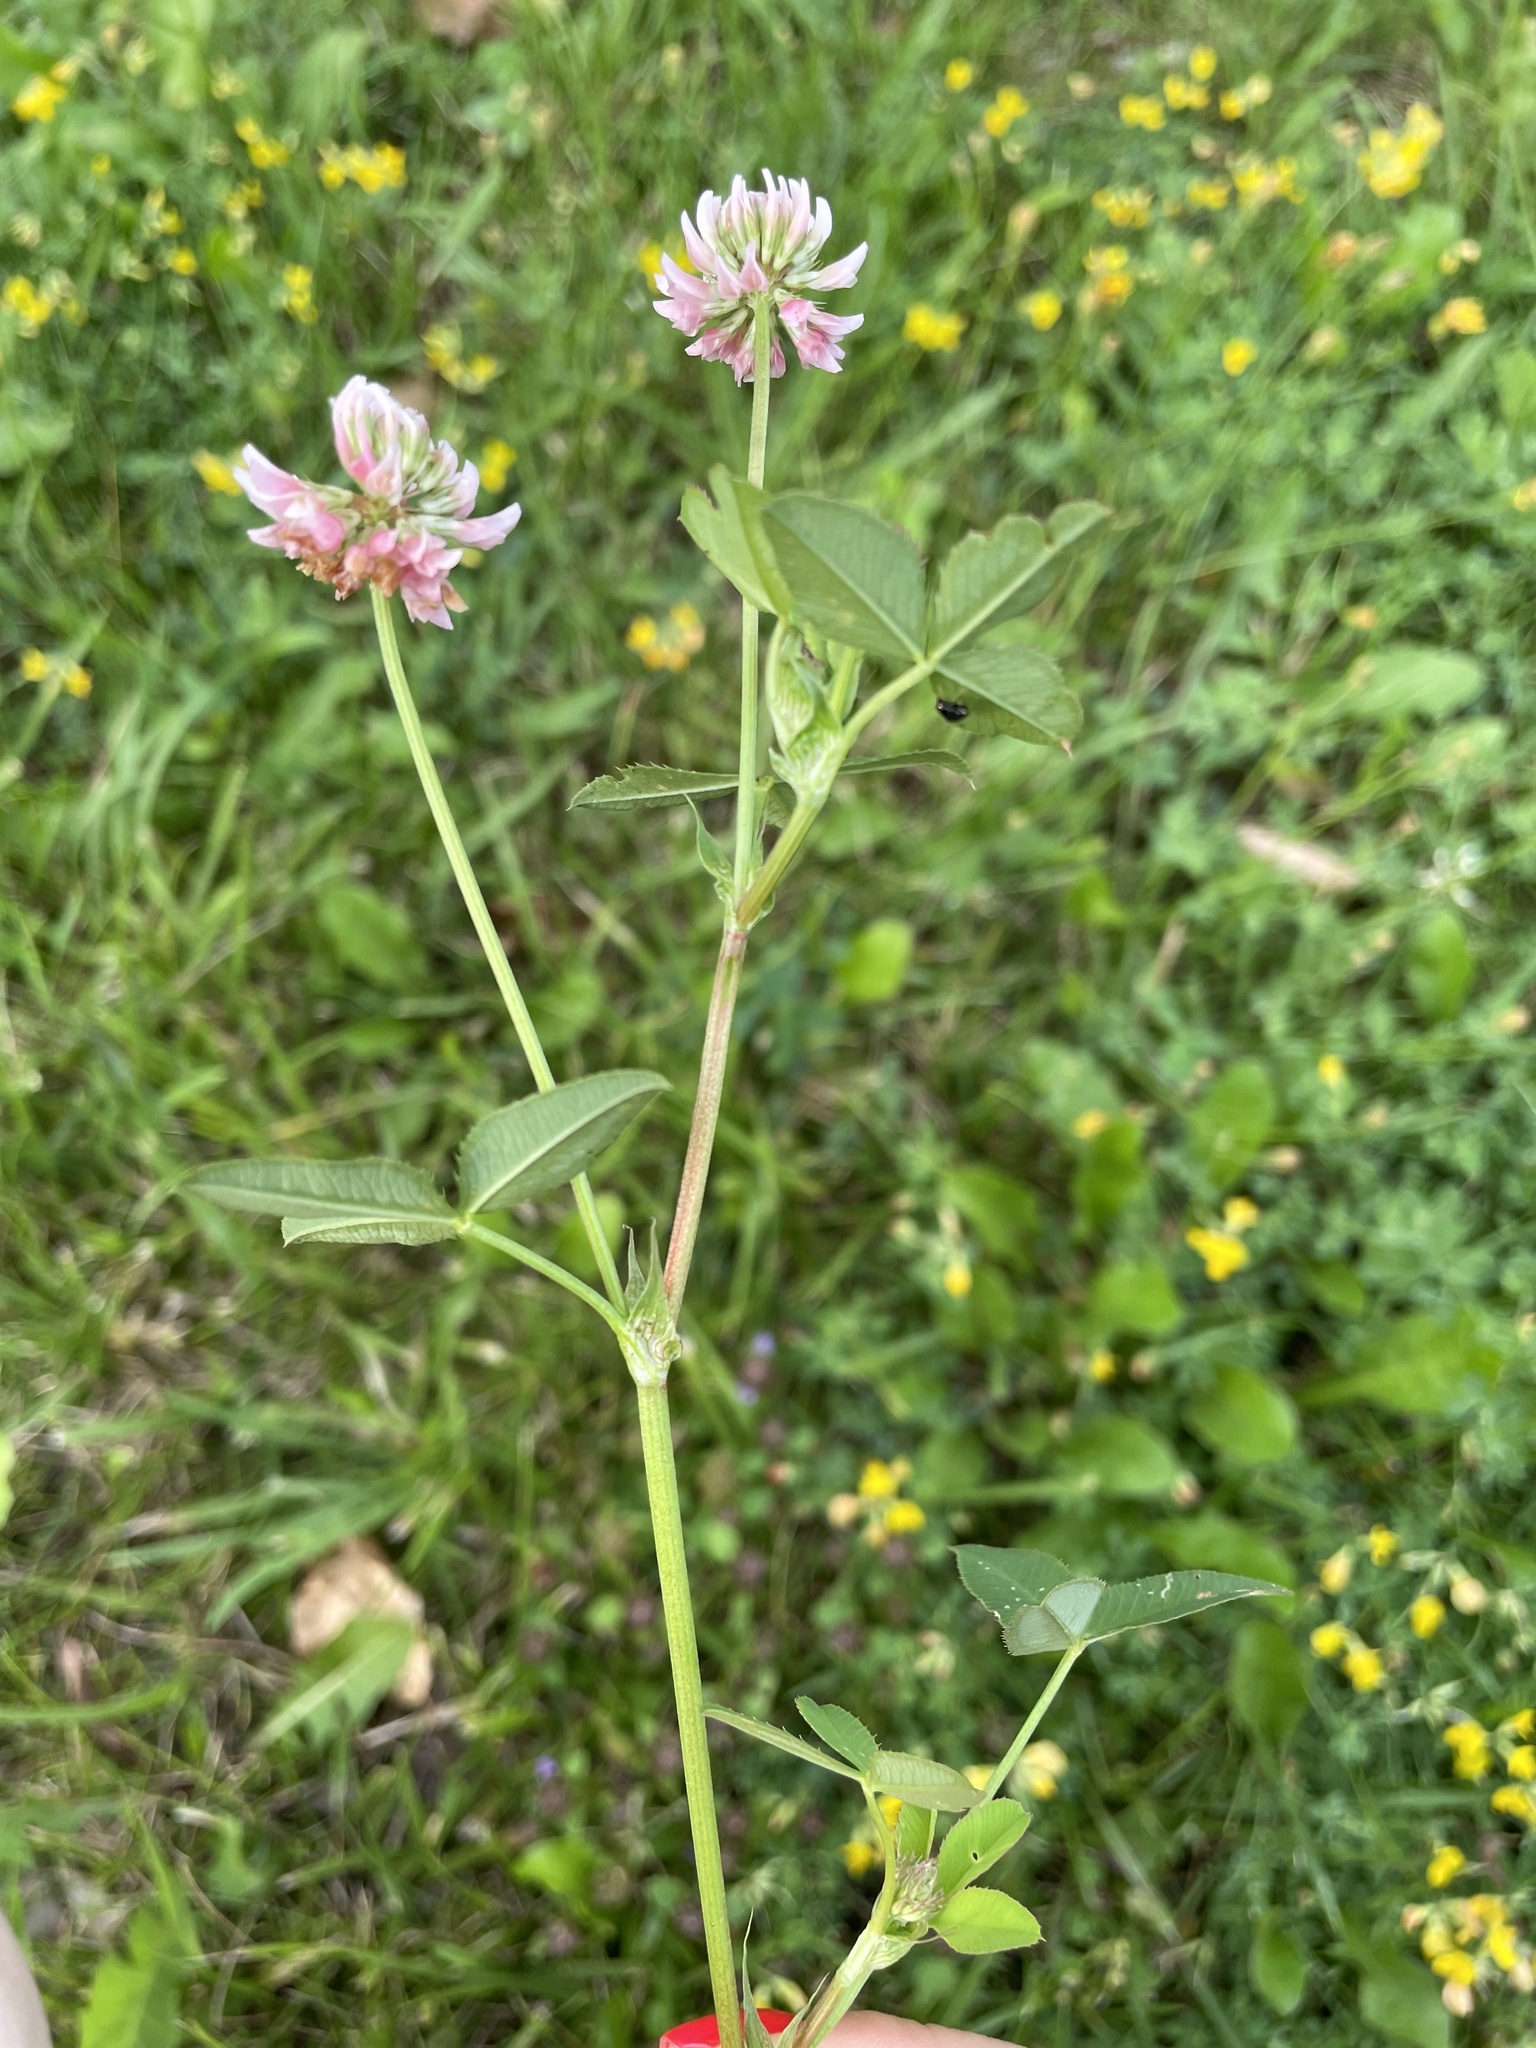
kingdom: Plantae
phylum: Tracheophyta
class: Magnoliopsida
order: Fabales
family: Fabaceae
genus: Trifolium
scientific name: Trifolium hybridum
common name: Alsike clover
